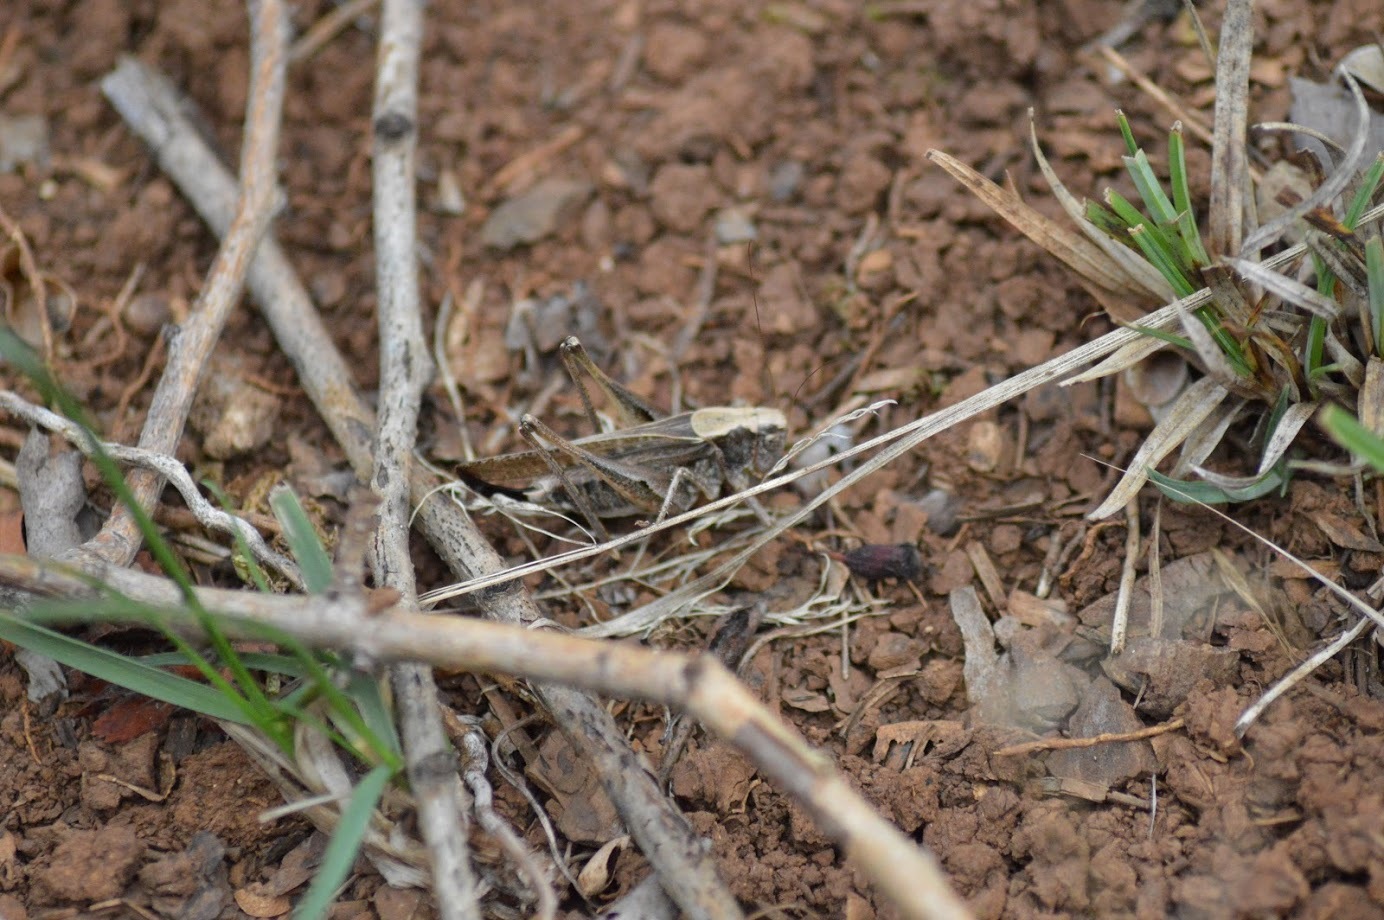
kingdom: Animalia
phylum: Arthropoda
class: Insecta
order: Orthoptera
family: Tettigoniidae
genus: Platycleis
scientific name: Platycleis albopunctata
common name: Grey bush-cricket
